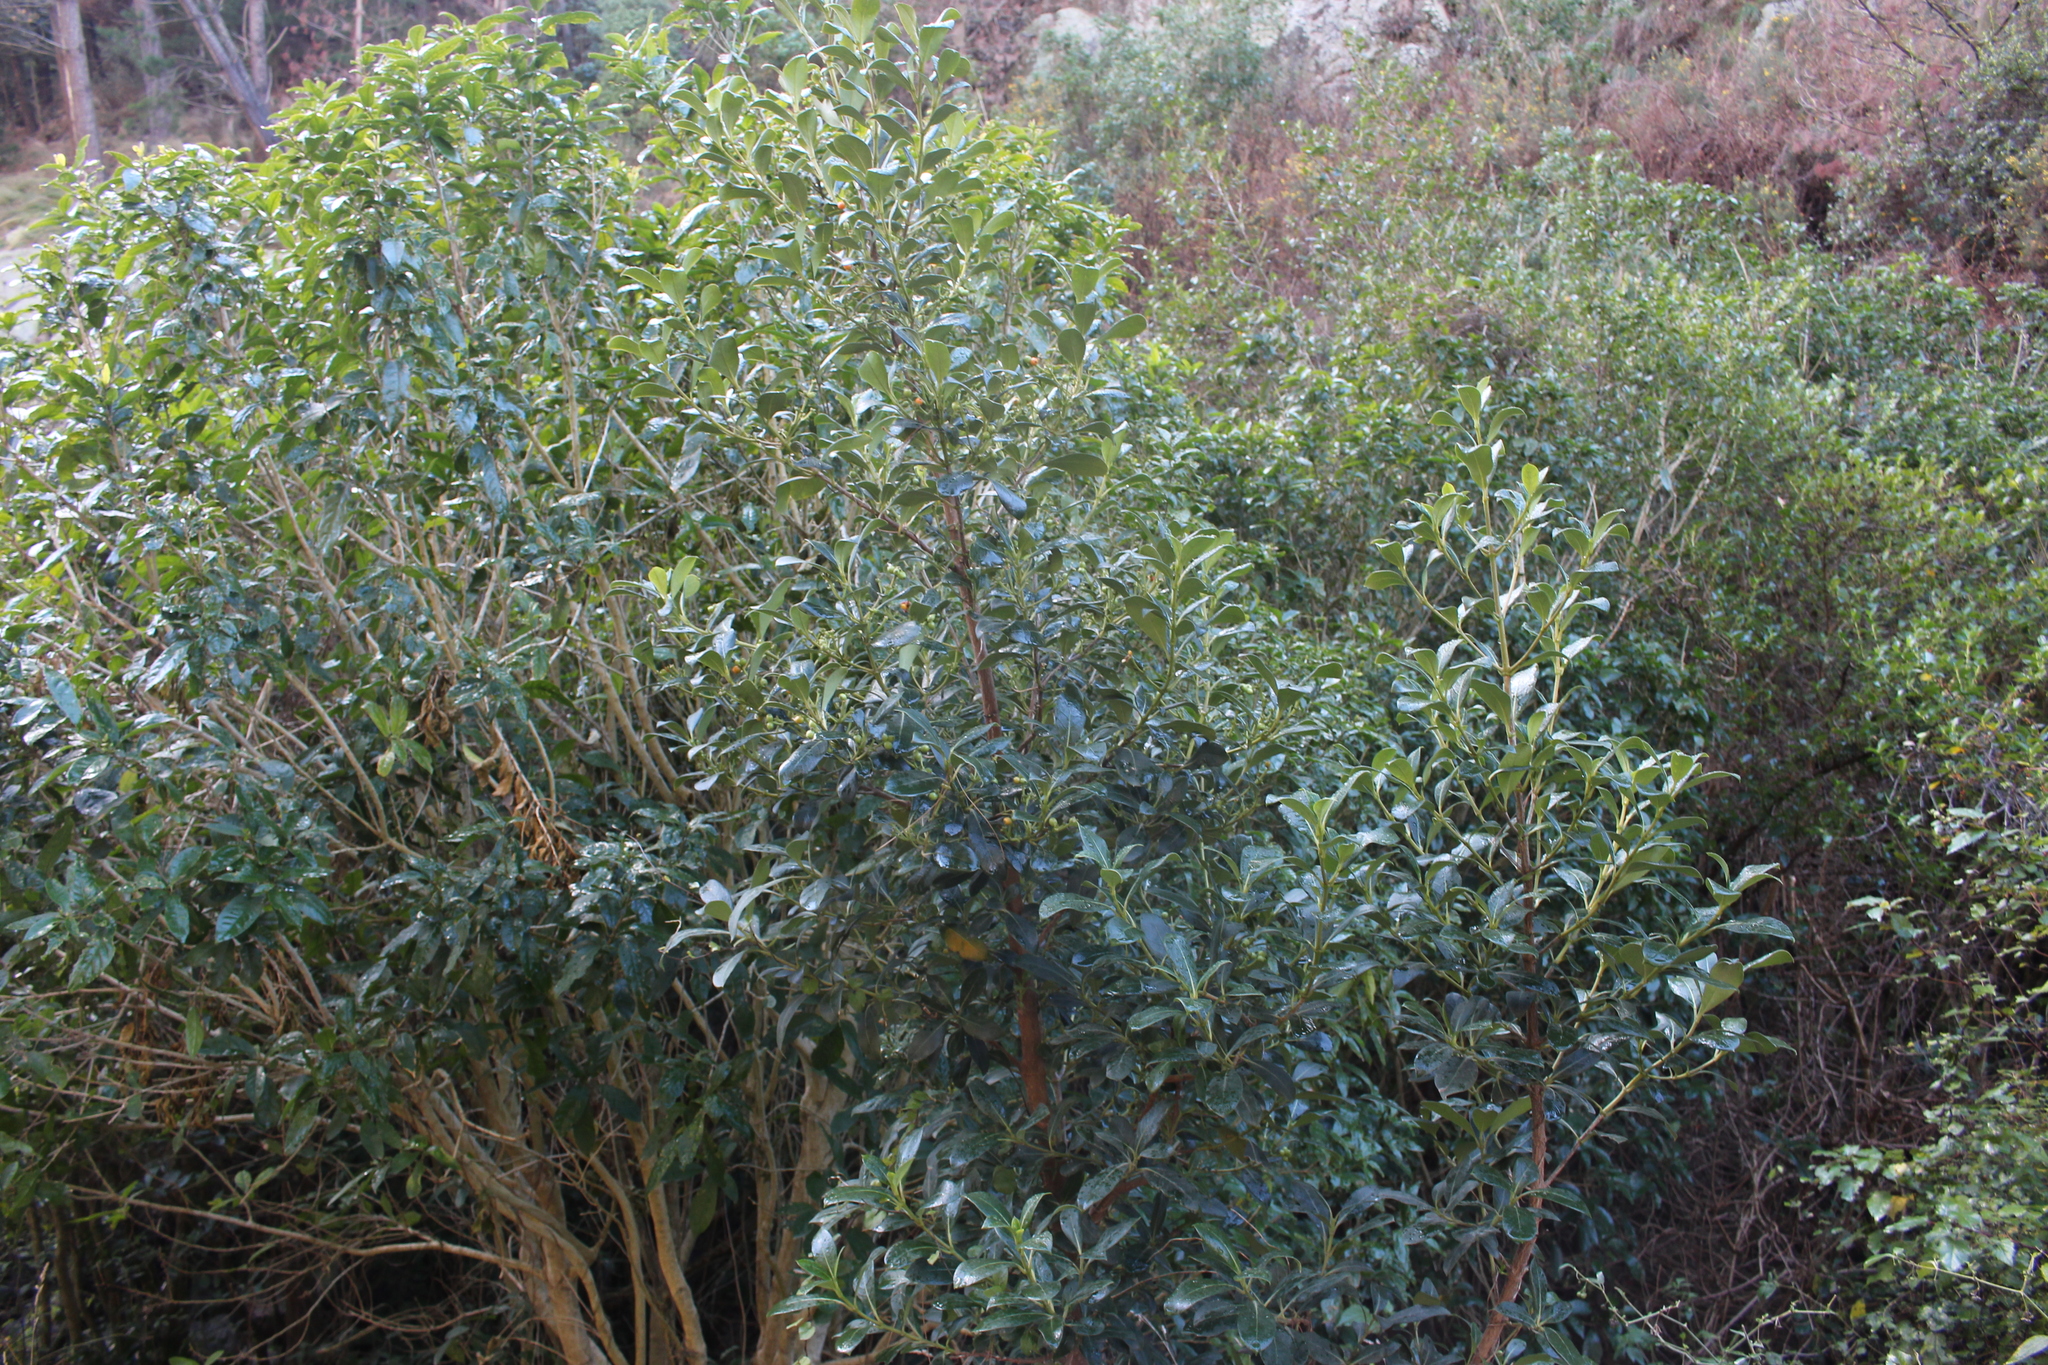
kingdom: Plantae
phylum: Tracheophyta
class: Magnoliopsida
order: Gentianales
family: Rubiaceae
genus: Coprosma
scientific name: Coprosma lucida
